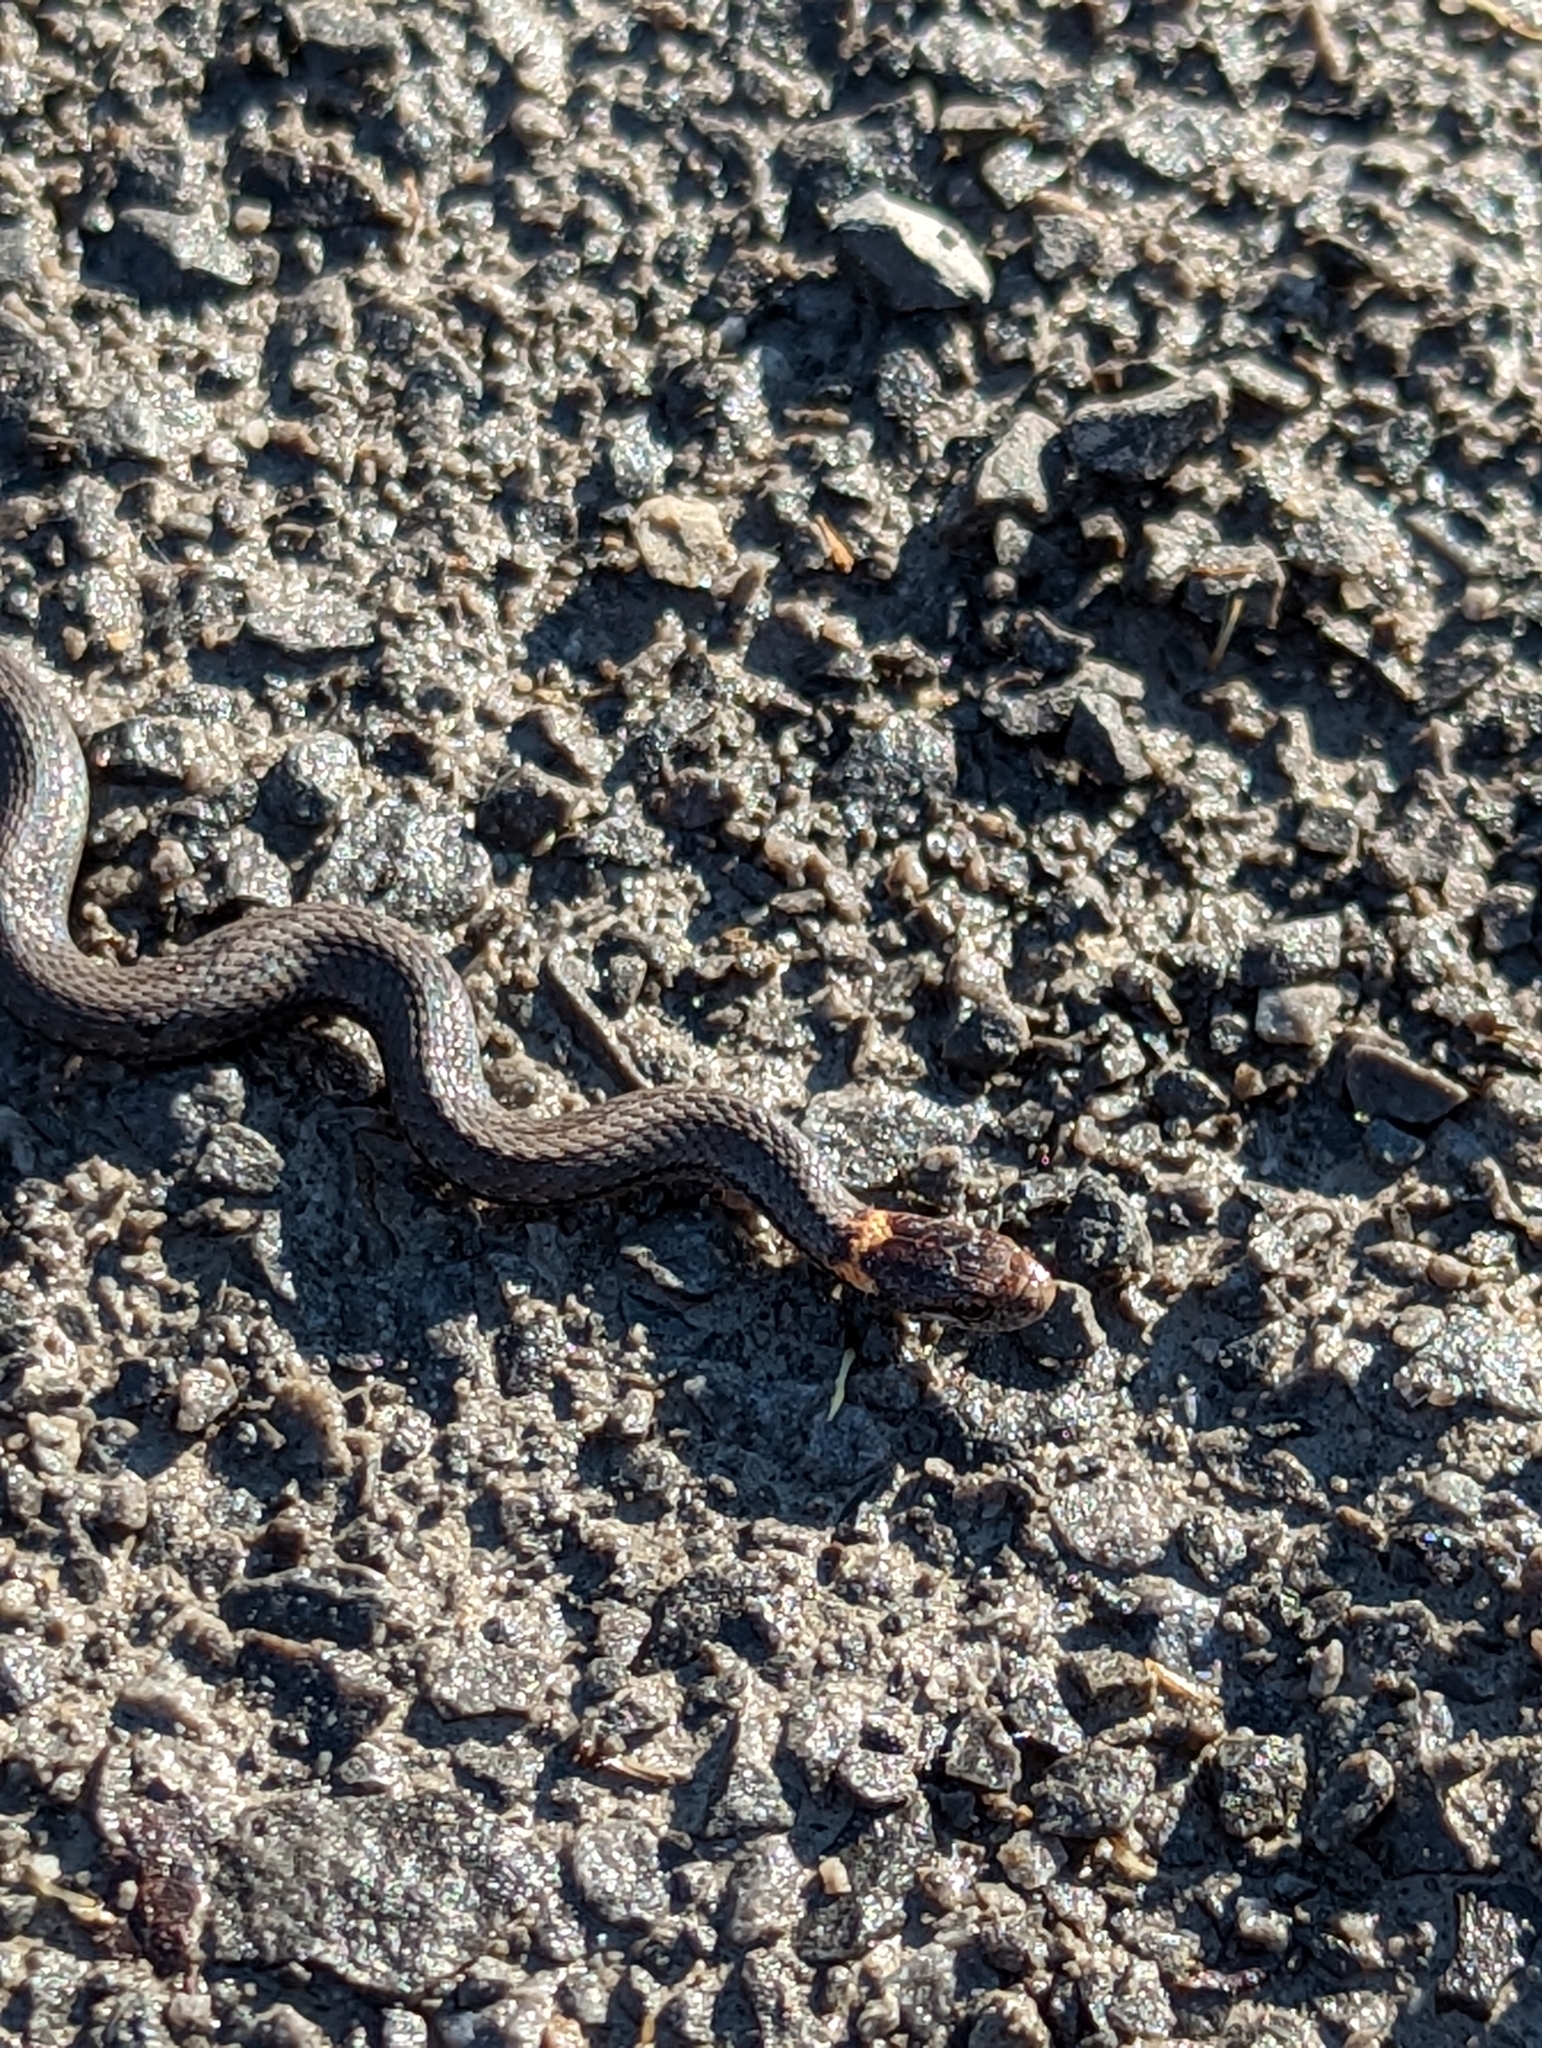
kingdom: Animalia
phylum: Chordata
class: Squamata
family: Colubridae
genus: Storeria
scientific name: Storeria occipitomaculata
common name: Redbelly snake
